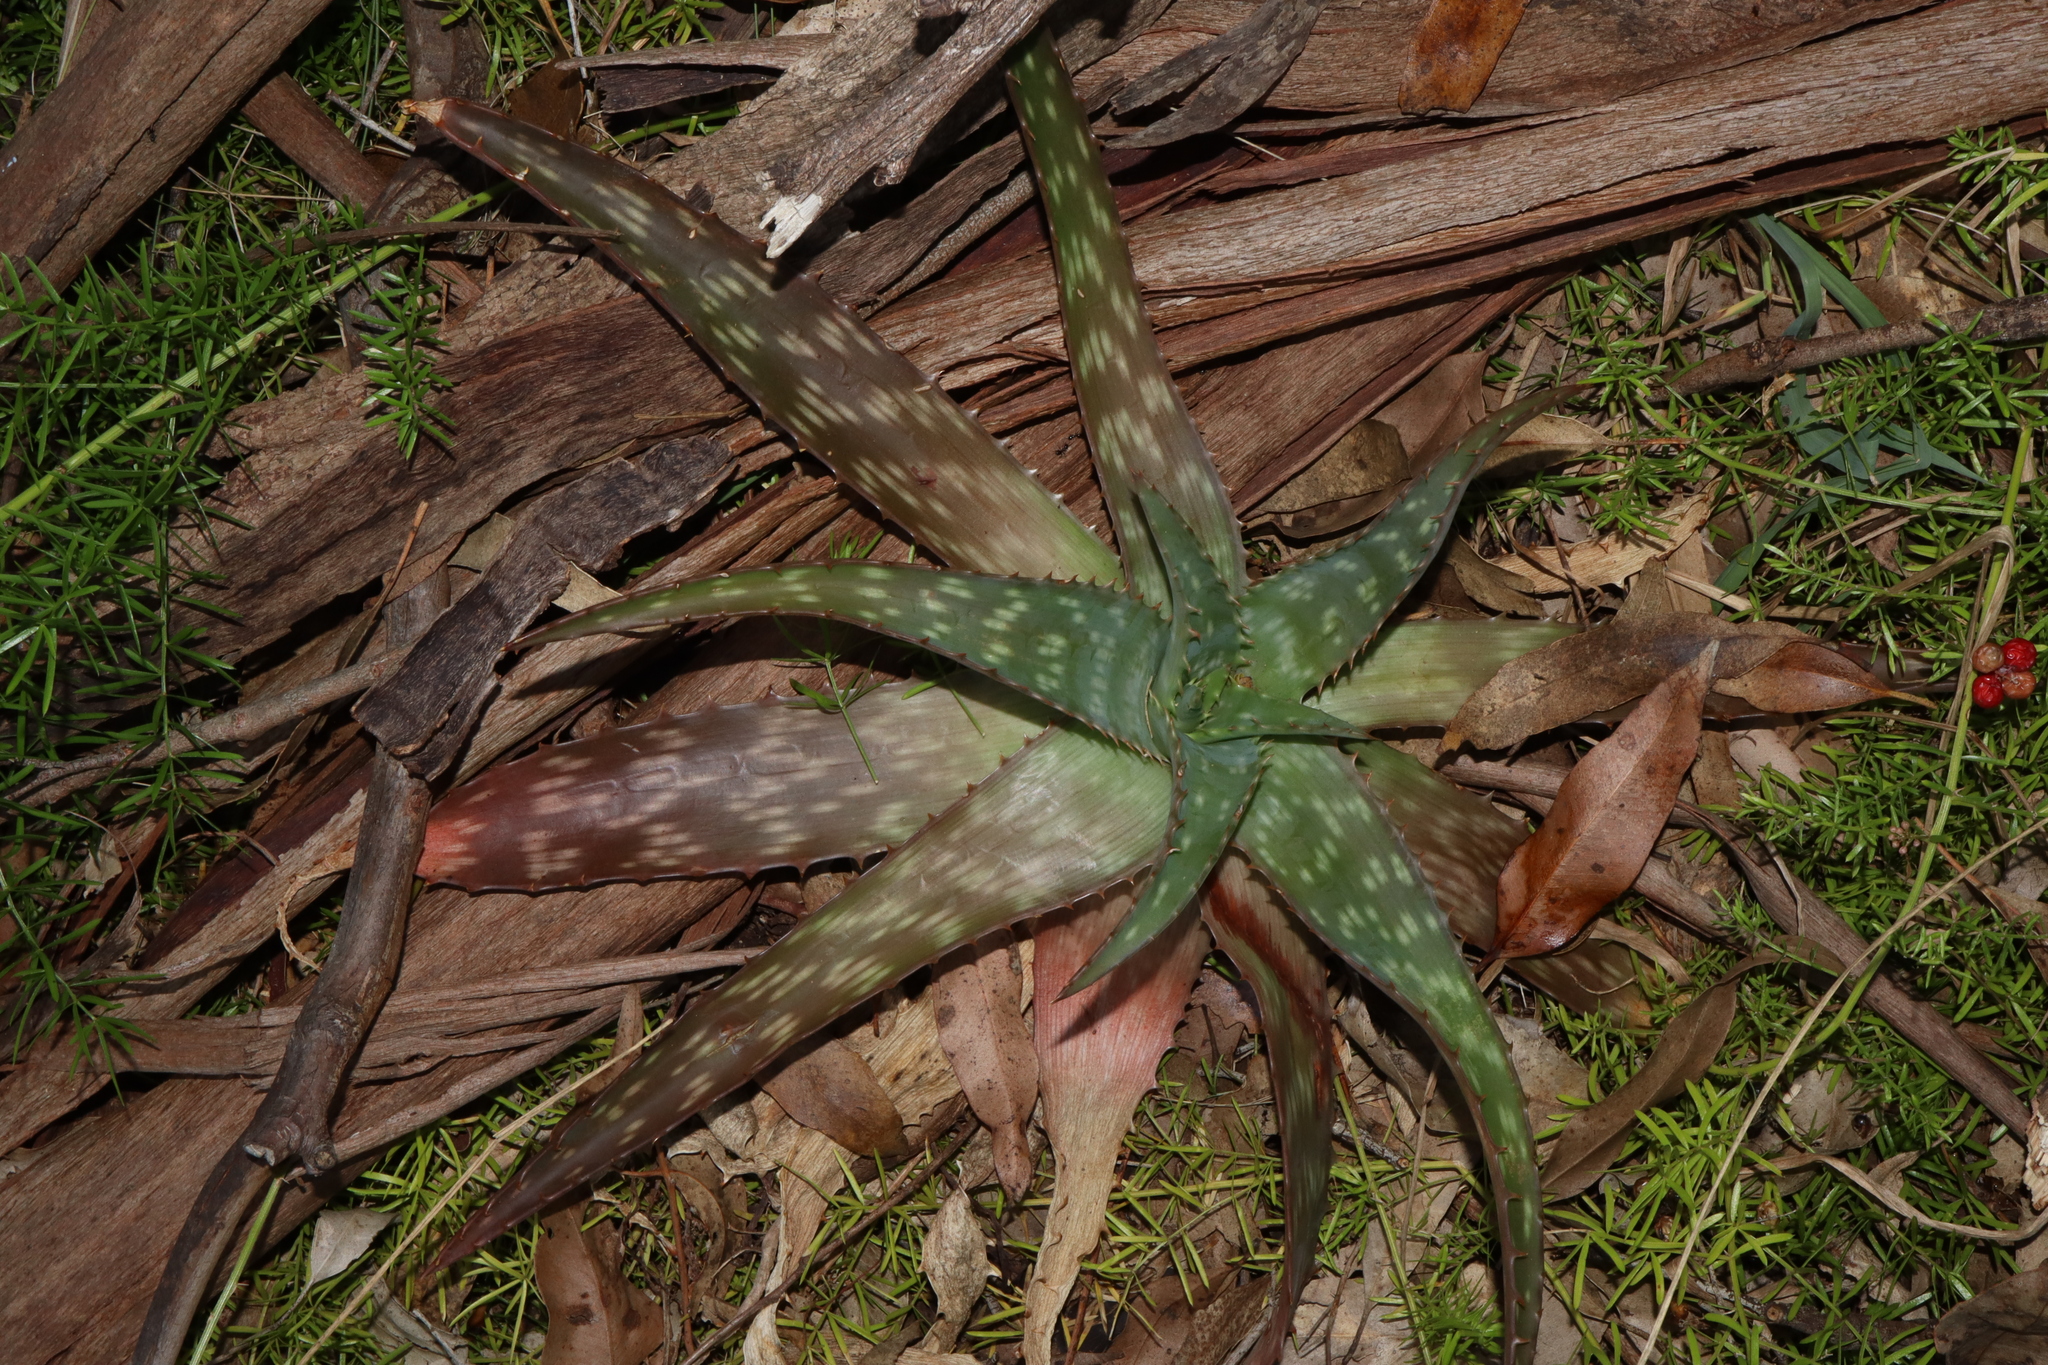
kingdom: Plantae
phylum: Tracheophyta
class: Liliopsida
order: Asparagales
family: Asphodelaceae
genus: Aloe
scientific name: Aloe maculata
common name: Broadleaf aloe
